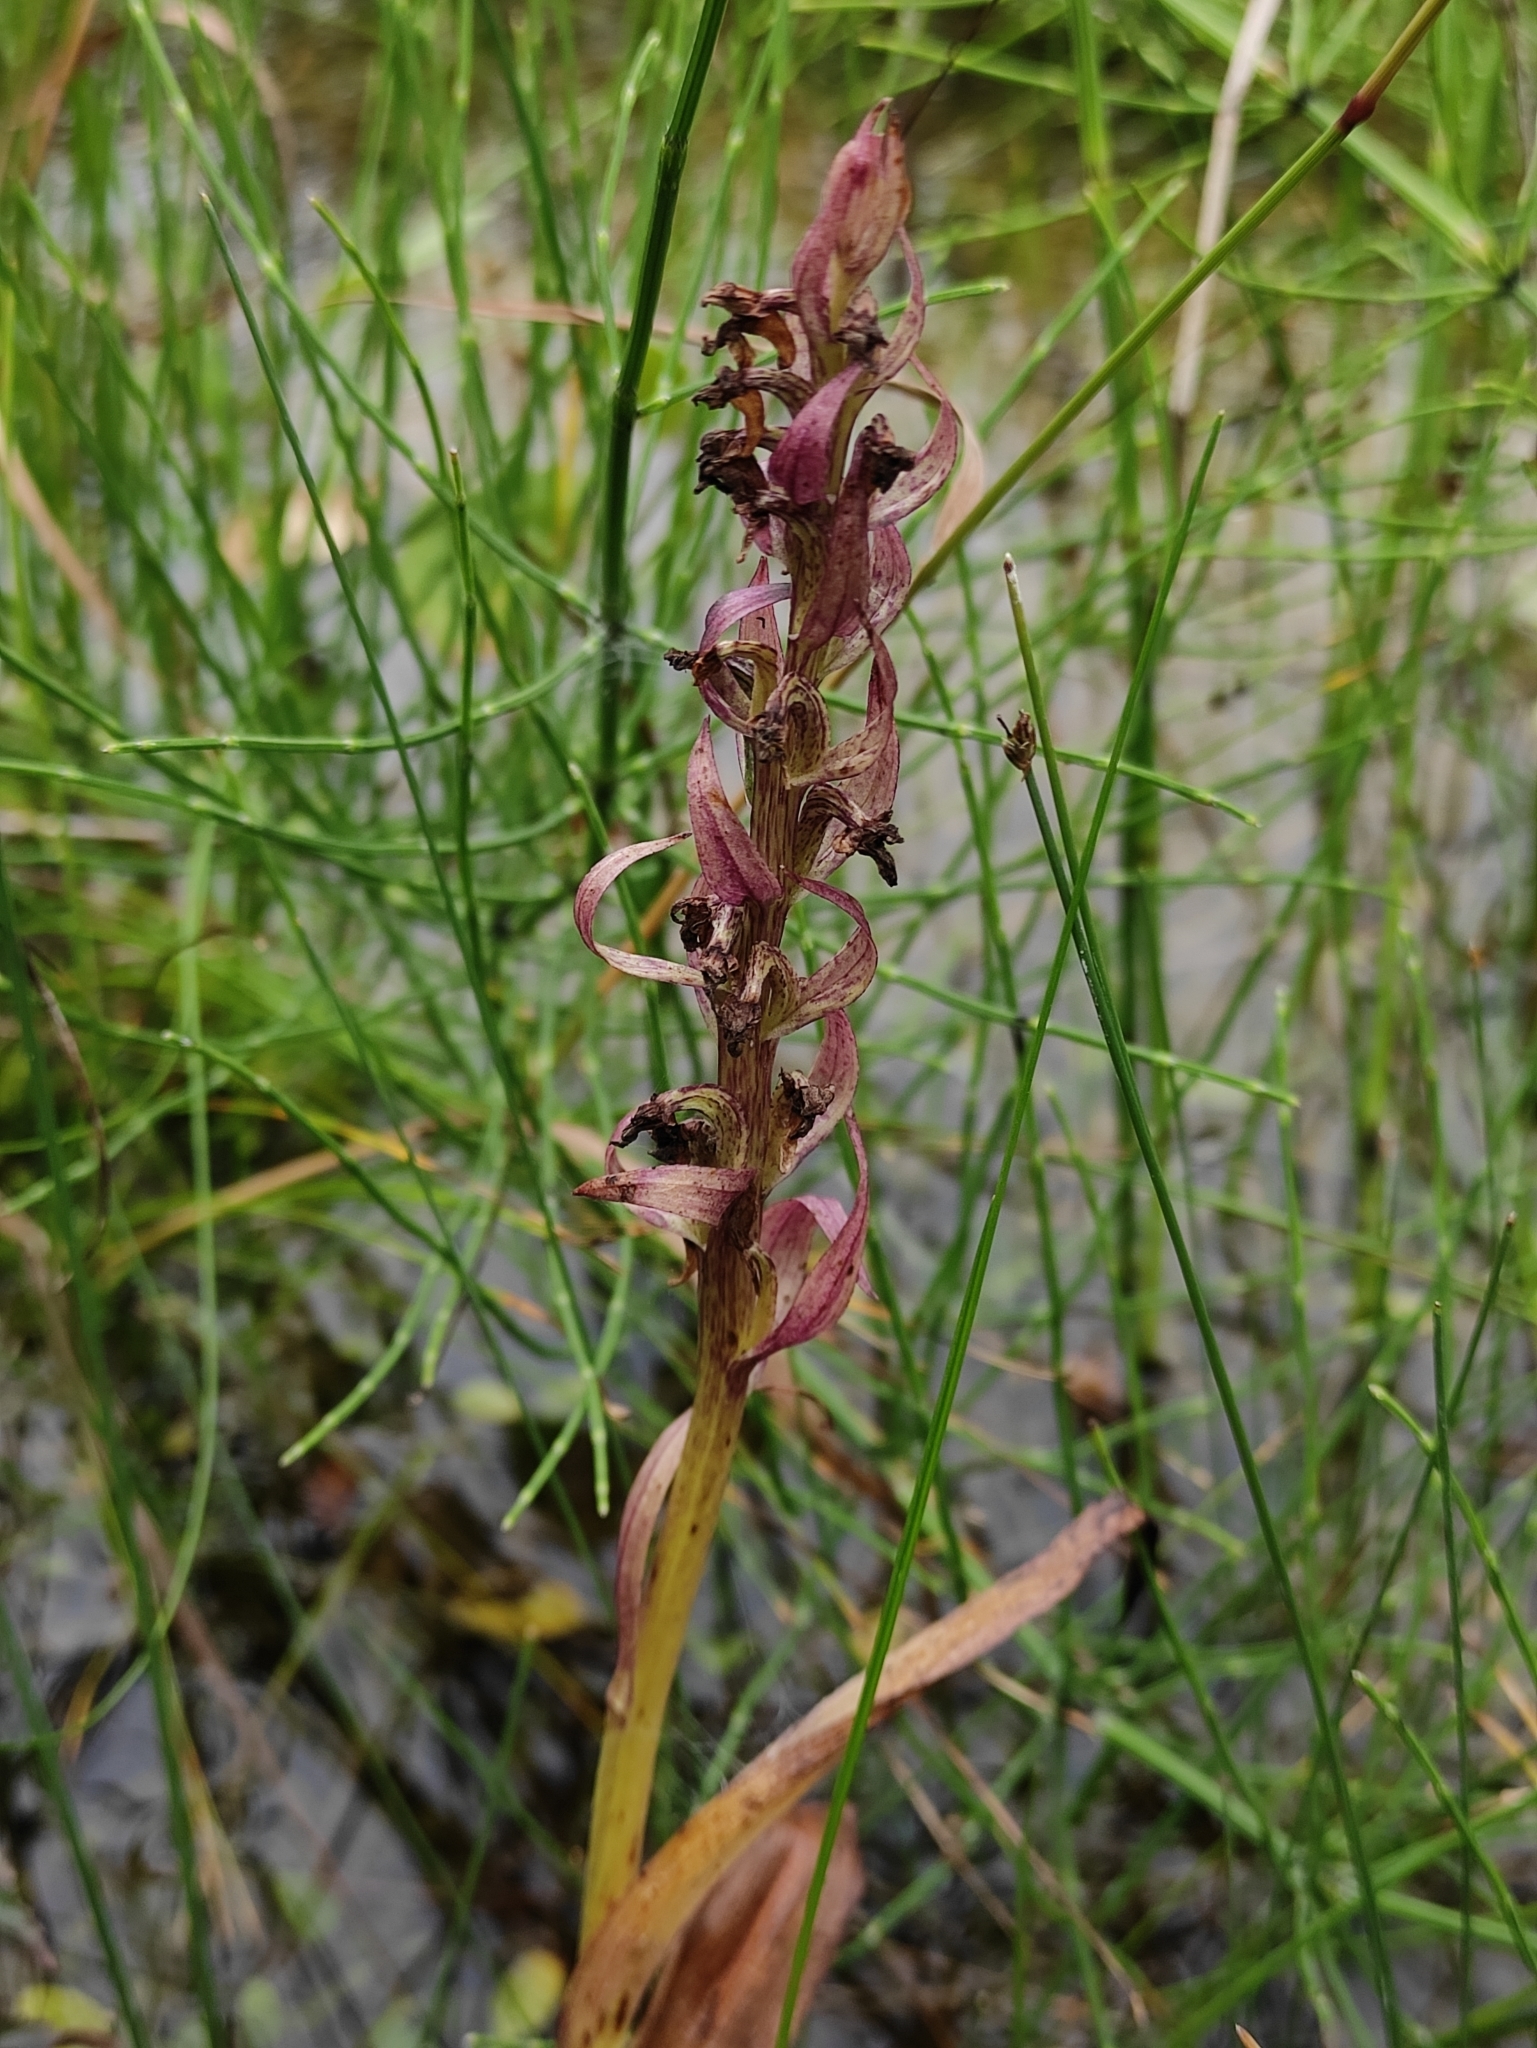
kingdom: Plantae
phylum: Tracheophyta
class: Liliopsida
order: Asparagales
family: Orchidaceae
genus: Dactylorhiza
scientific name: Dactylorhiza incarnata
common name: Early marsh-orchid
